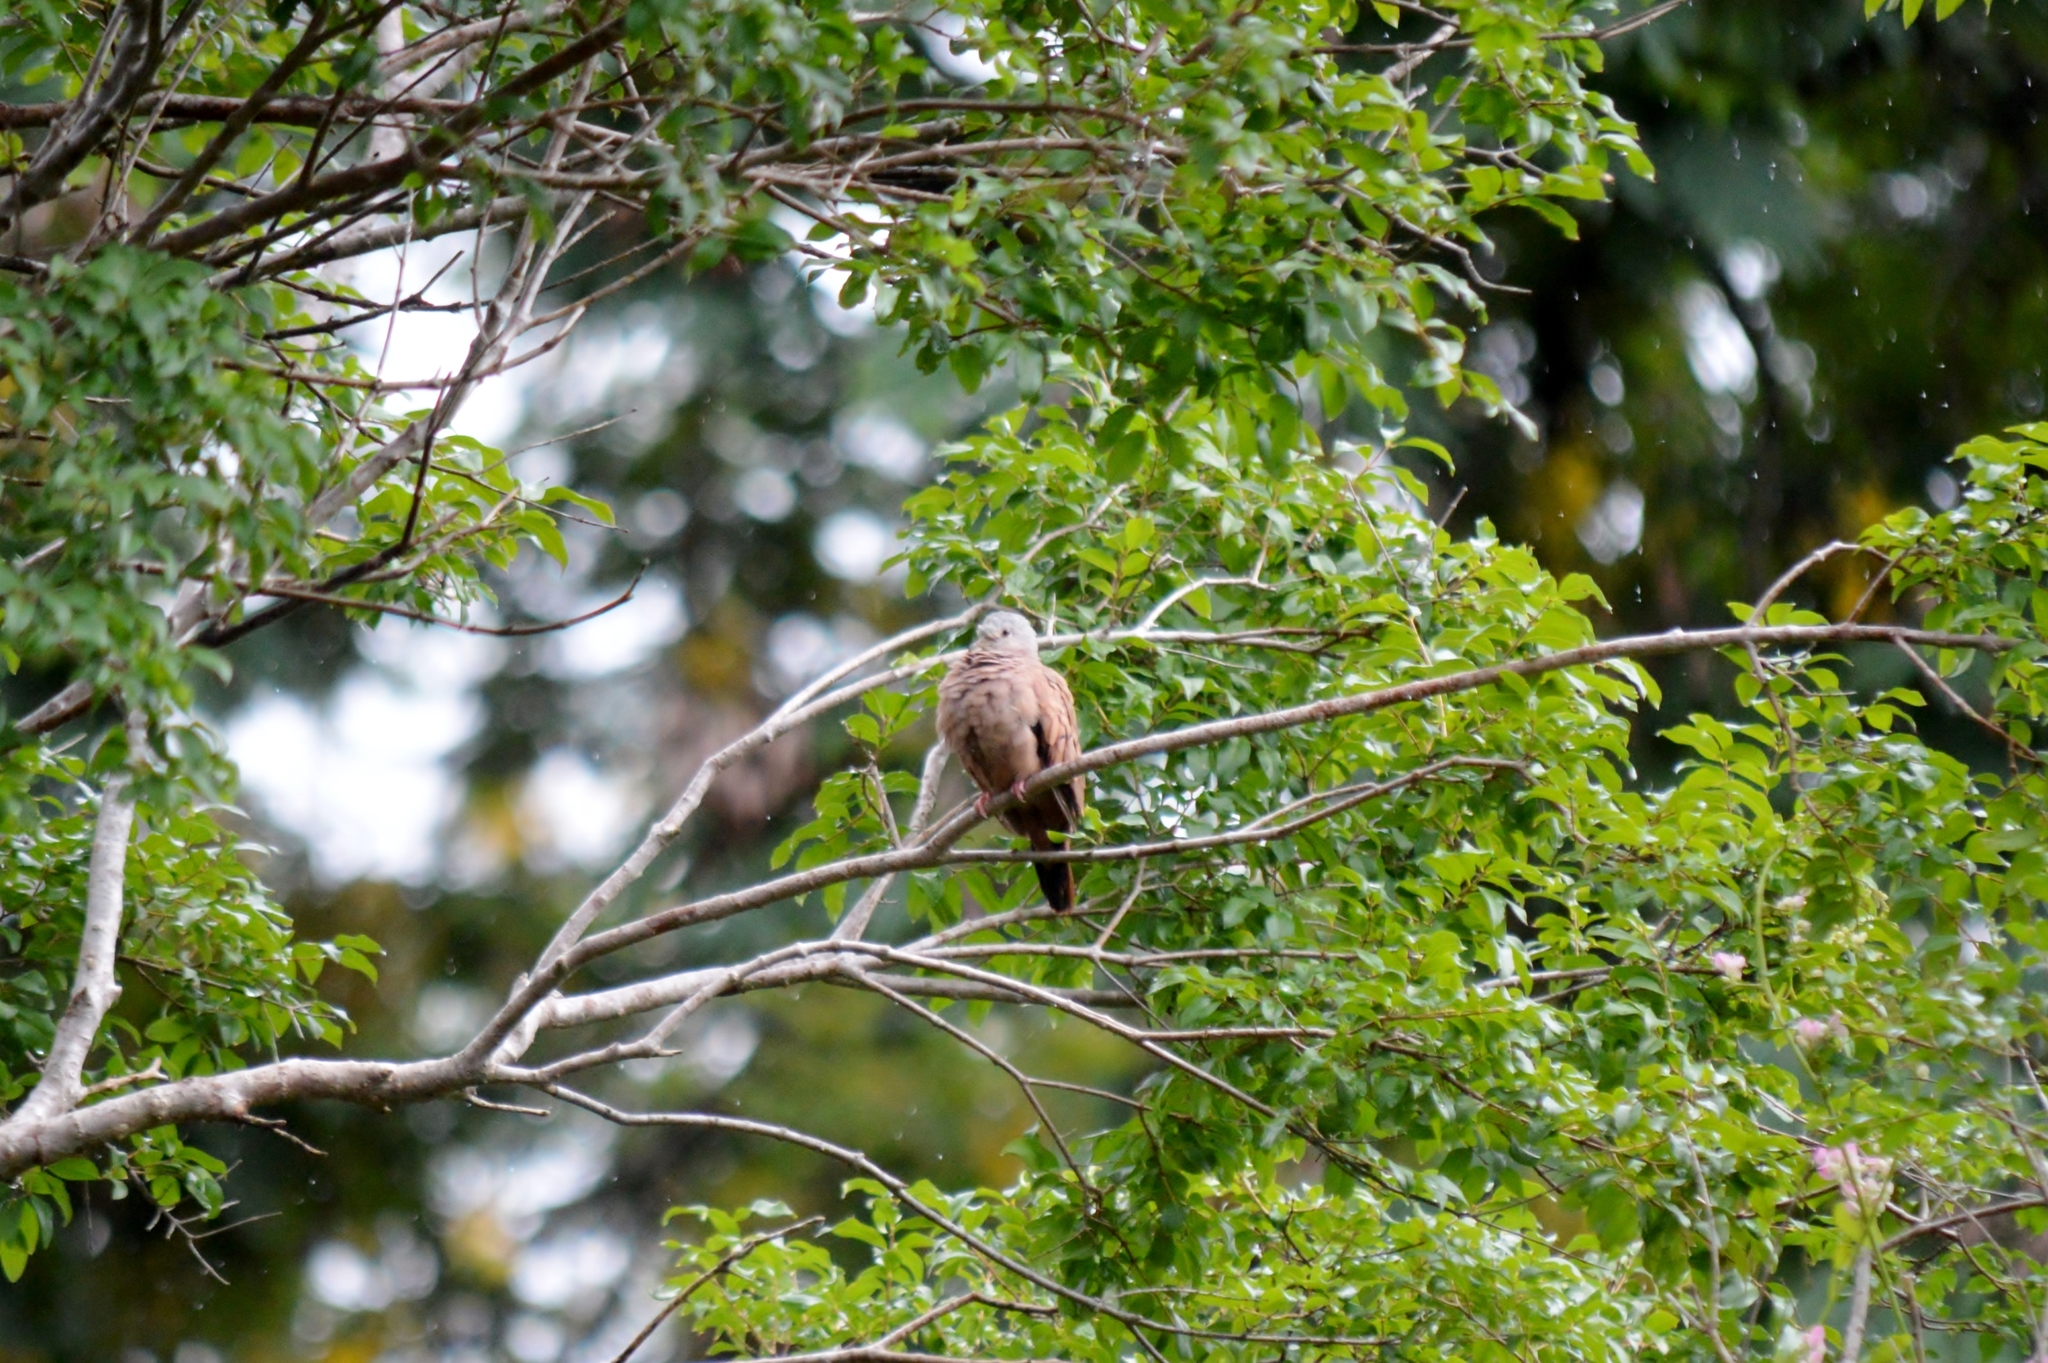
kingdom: Animalia
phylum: Chordata
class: Aves
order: Columbiformes
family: Columbidae
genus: Columbina
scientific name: Columbina talpacoti
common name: Ruddy ground dove
